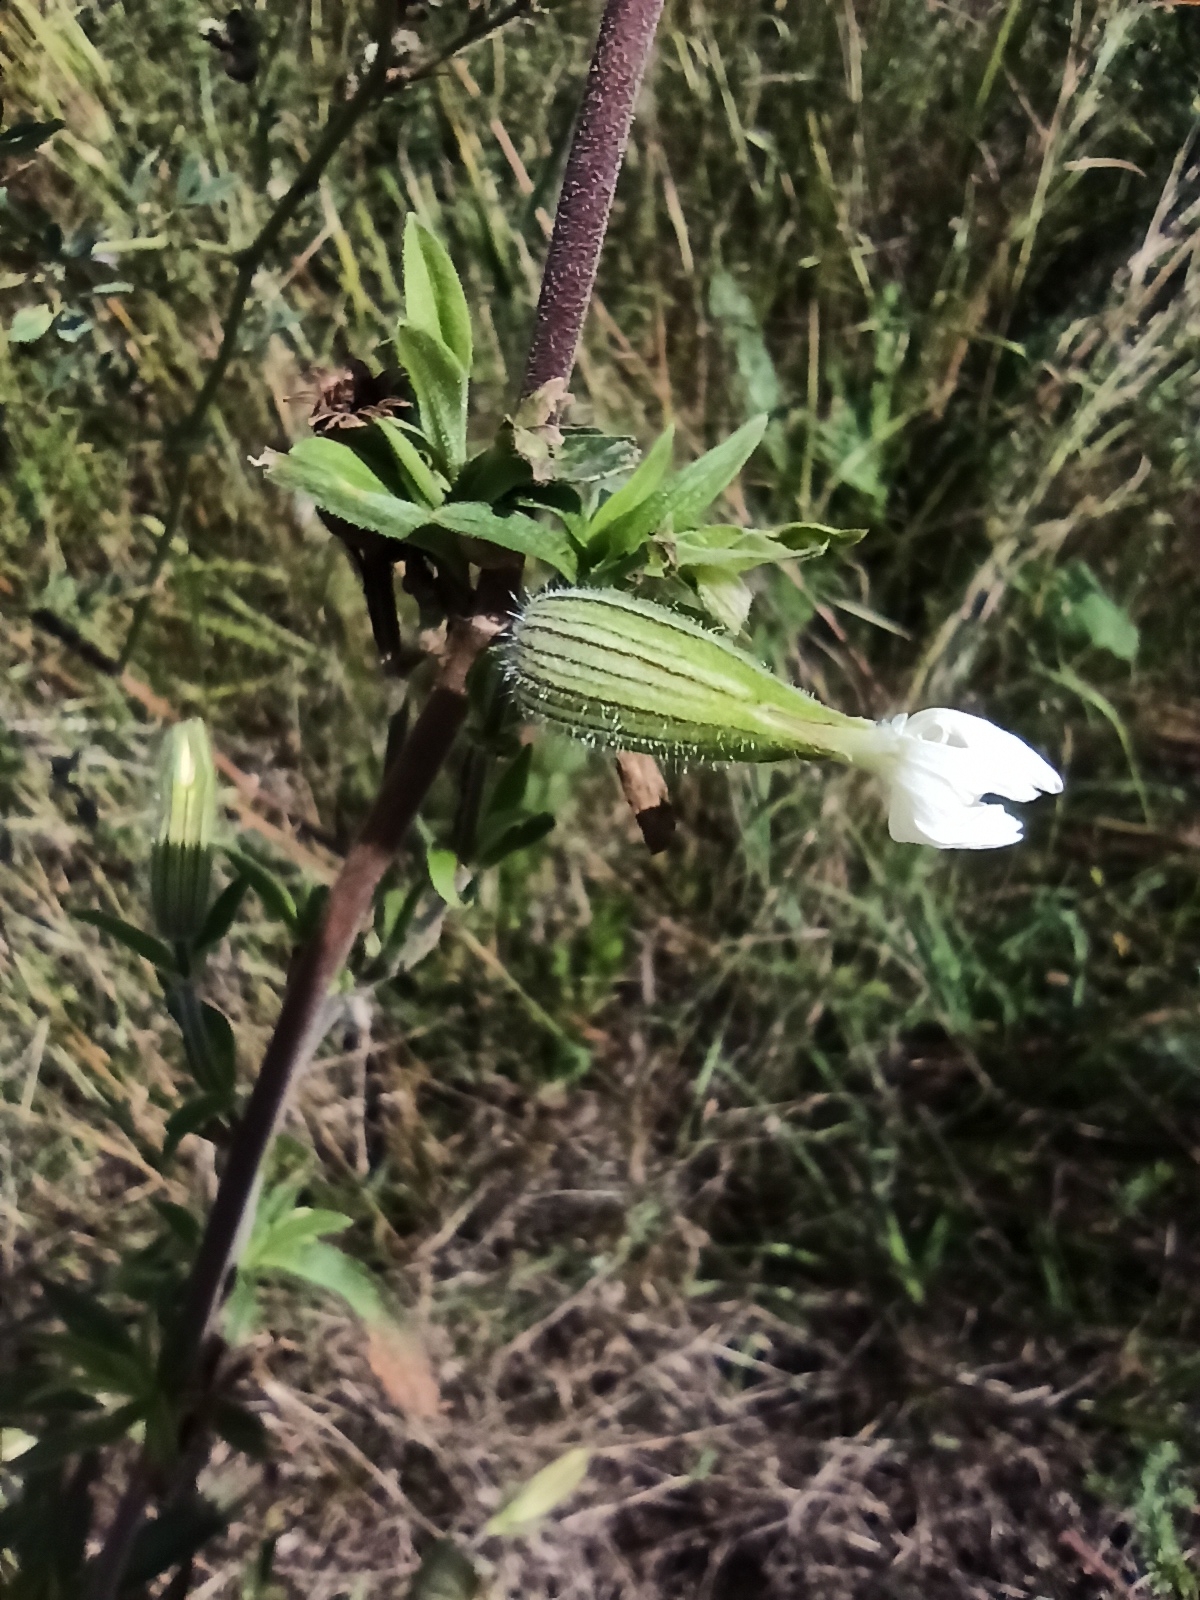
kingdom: Plantae
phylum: Tracheophyta
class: Magnoliopsida
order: Caryophyllales
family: Caryophyllaceae
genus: Silene
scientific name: Silene latifolia
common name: White campion
